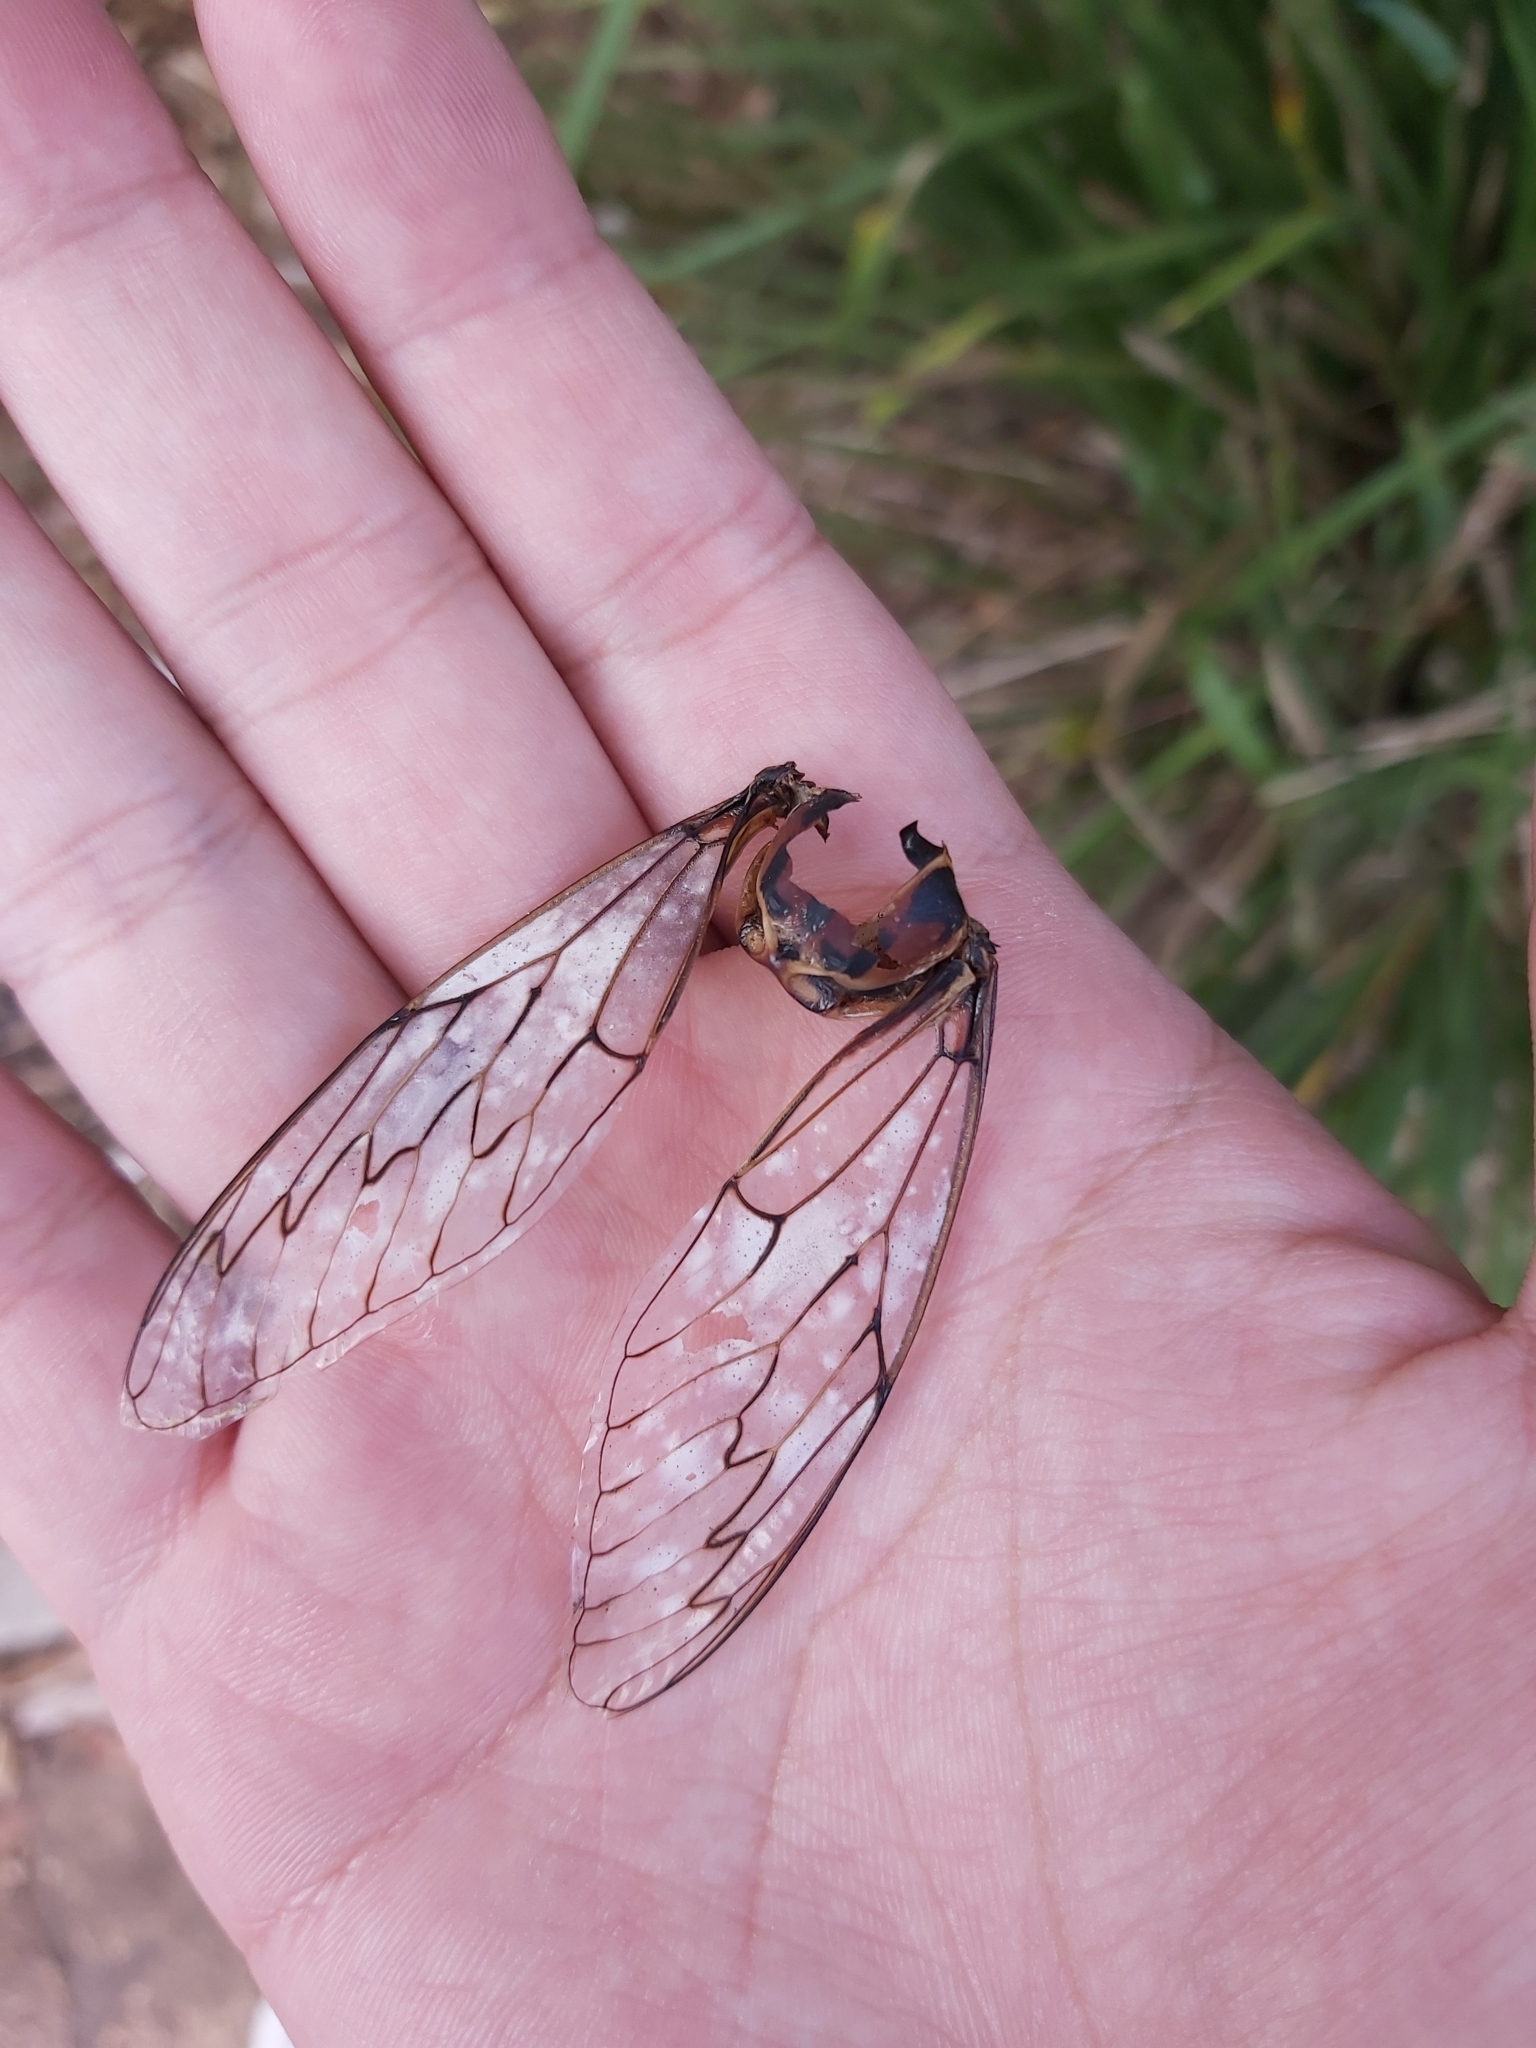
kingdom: Animalia
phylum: Arthropoda
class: Insecta
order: Hemiptera
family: Cicadidae
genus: Henicopsaltria
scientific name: Henicopsaltria eydouxii
